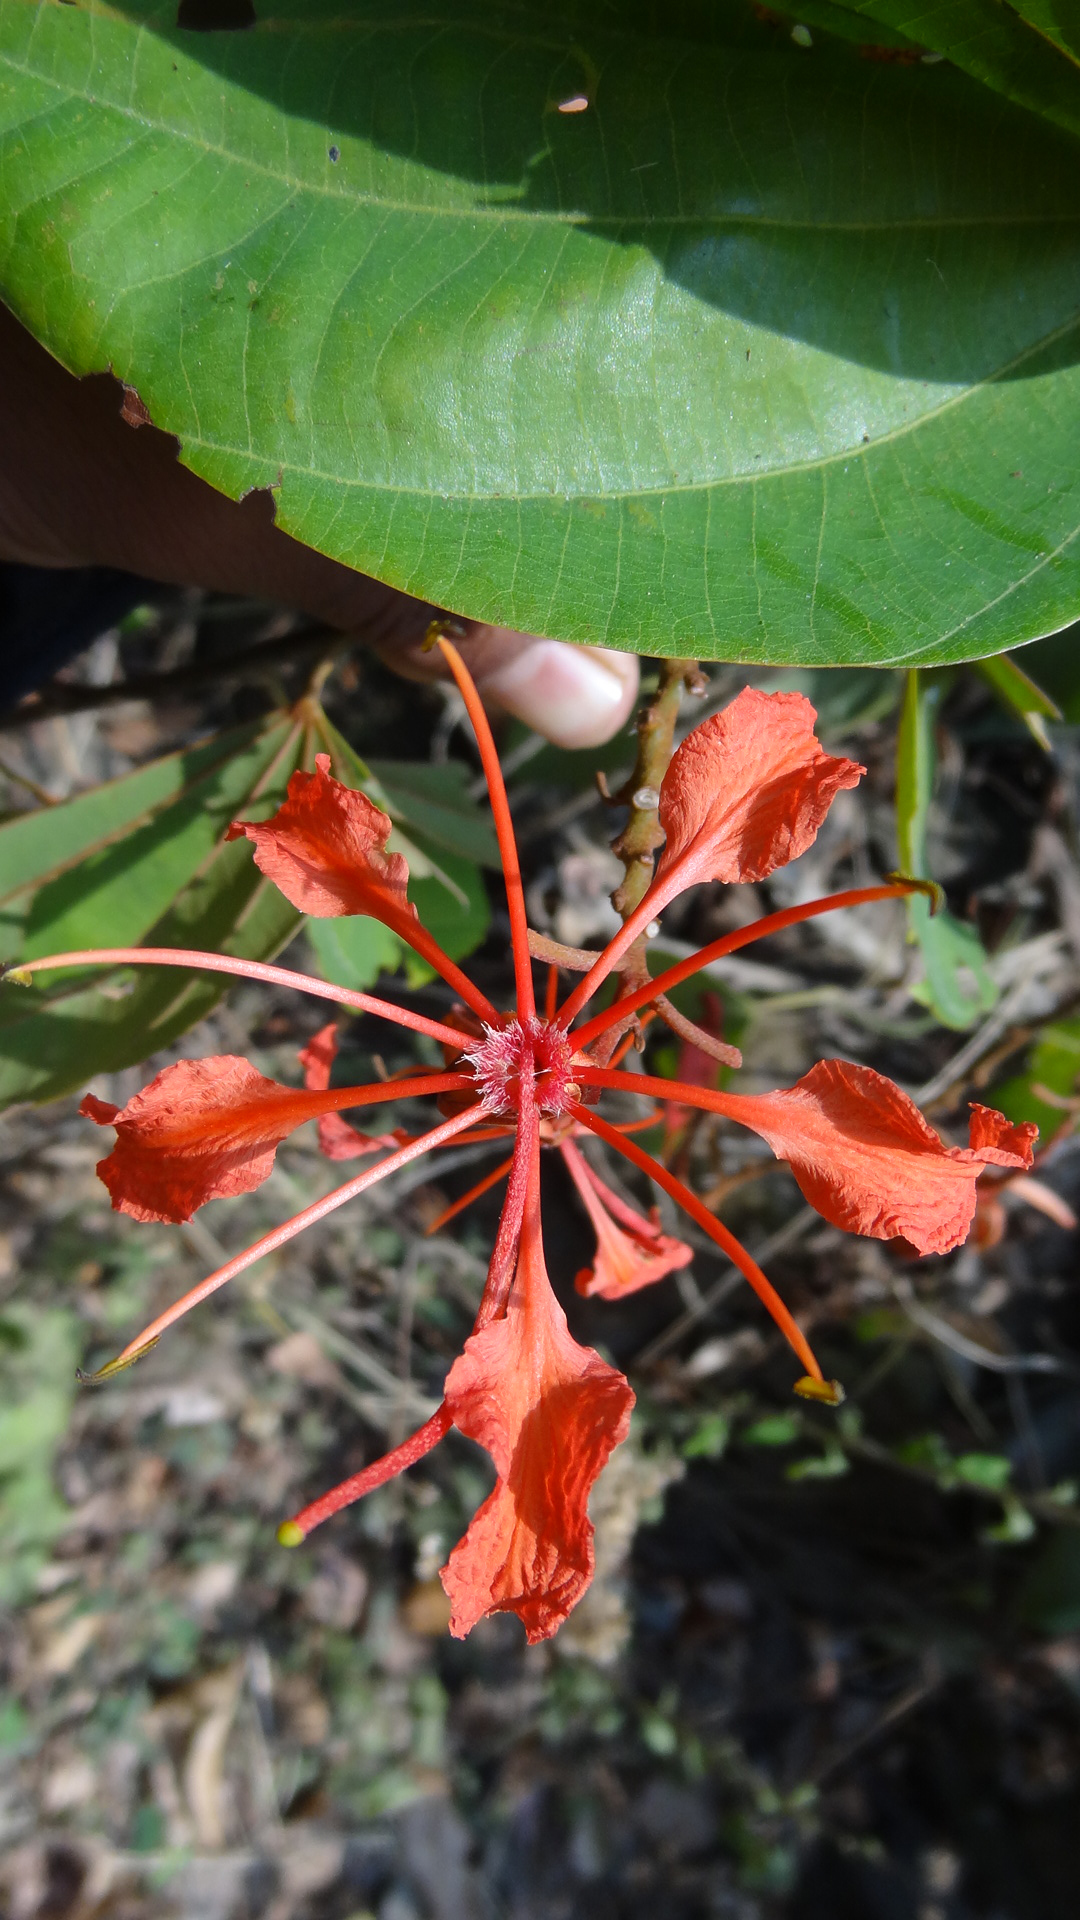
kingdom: Plantae
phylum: Tracheophyta
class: Magnoliopsida
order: Fabales
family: Fabaceae
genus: Bauhinia
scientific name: Bauhinia phoenicea
